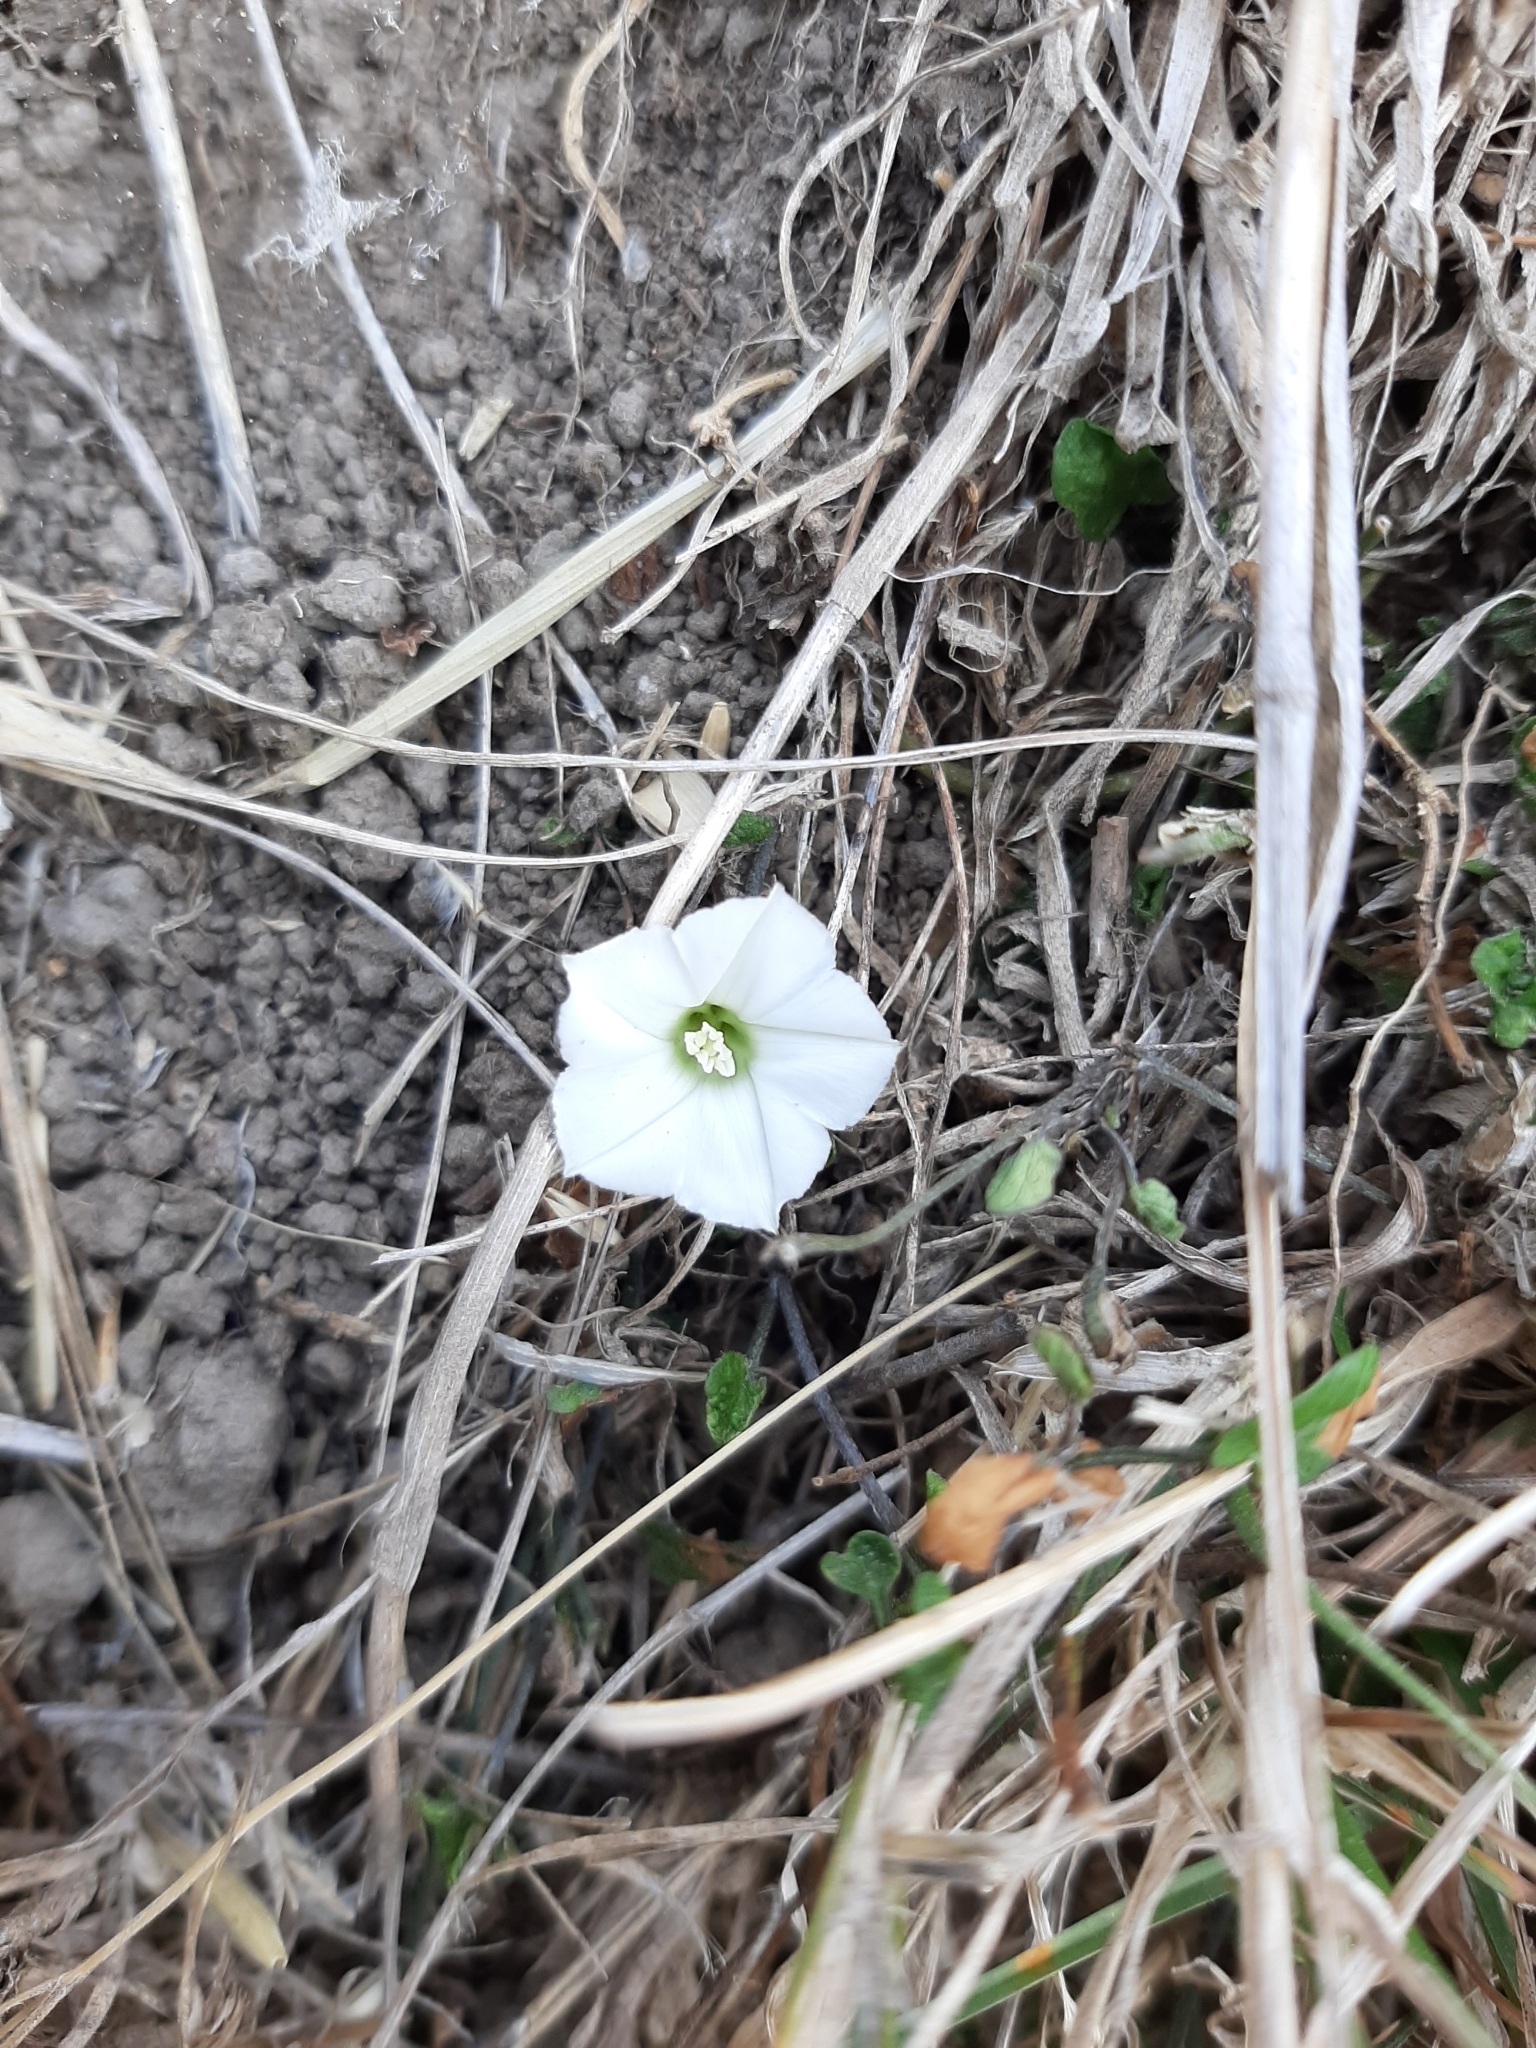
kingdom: Plantae
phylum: Tracheophyta
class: Magnoliopsida
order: Solanales
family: Convolvulaceae
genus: Convolvulus
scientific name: Convolvulus waitaha
